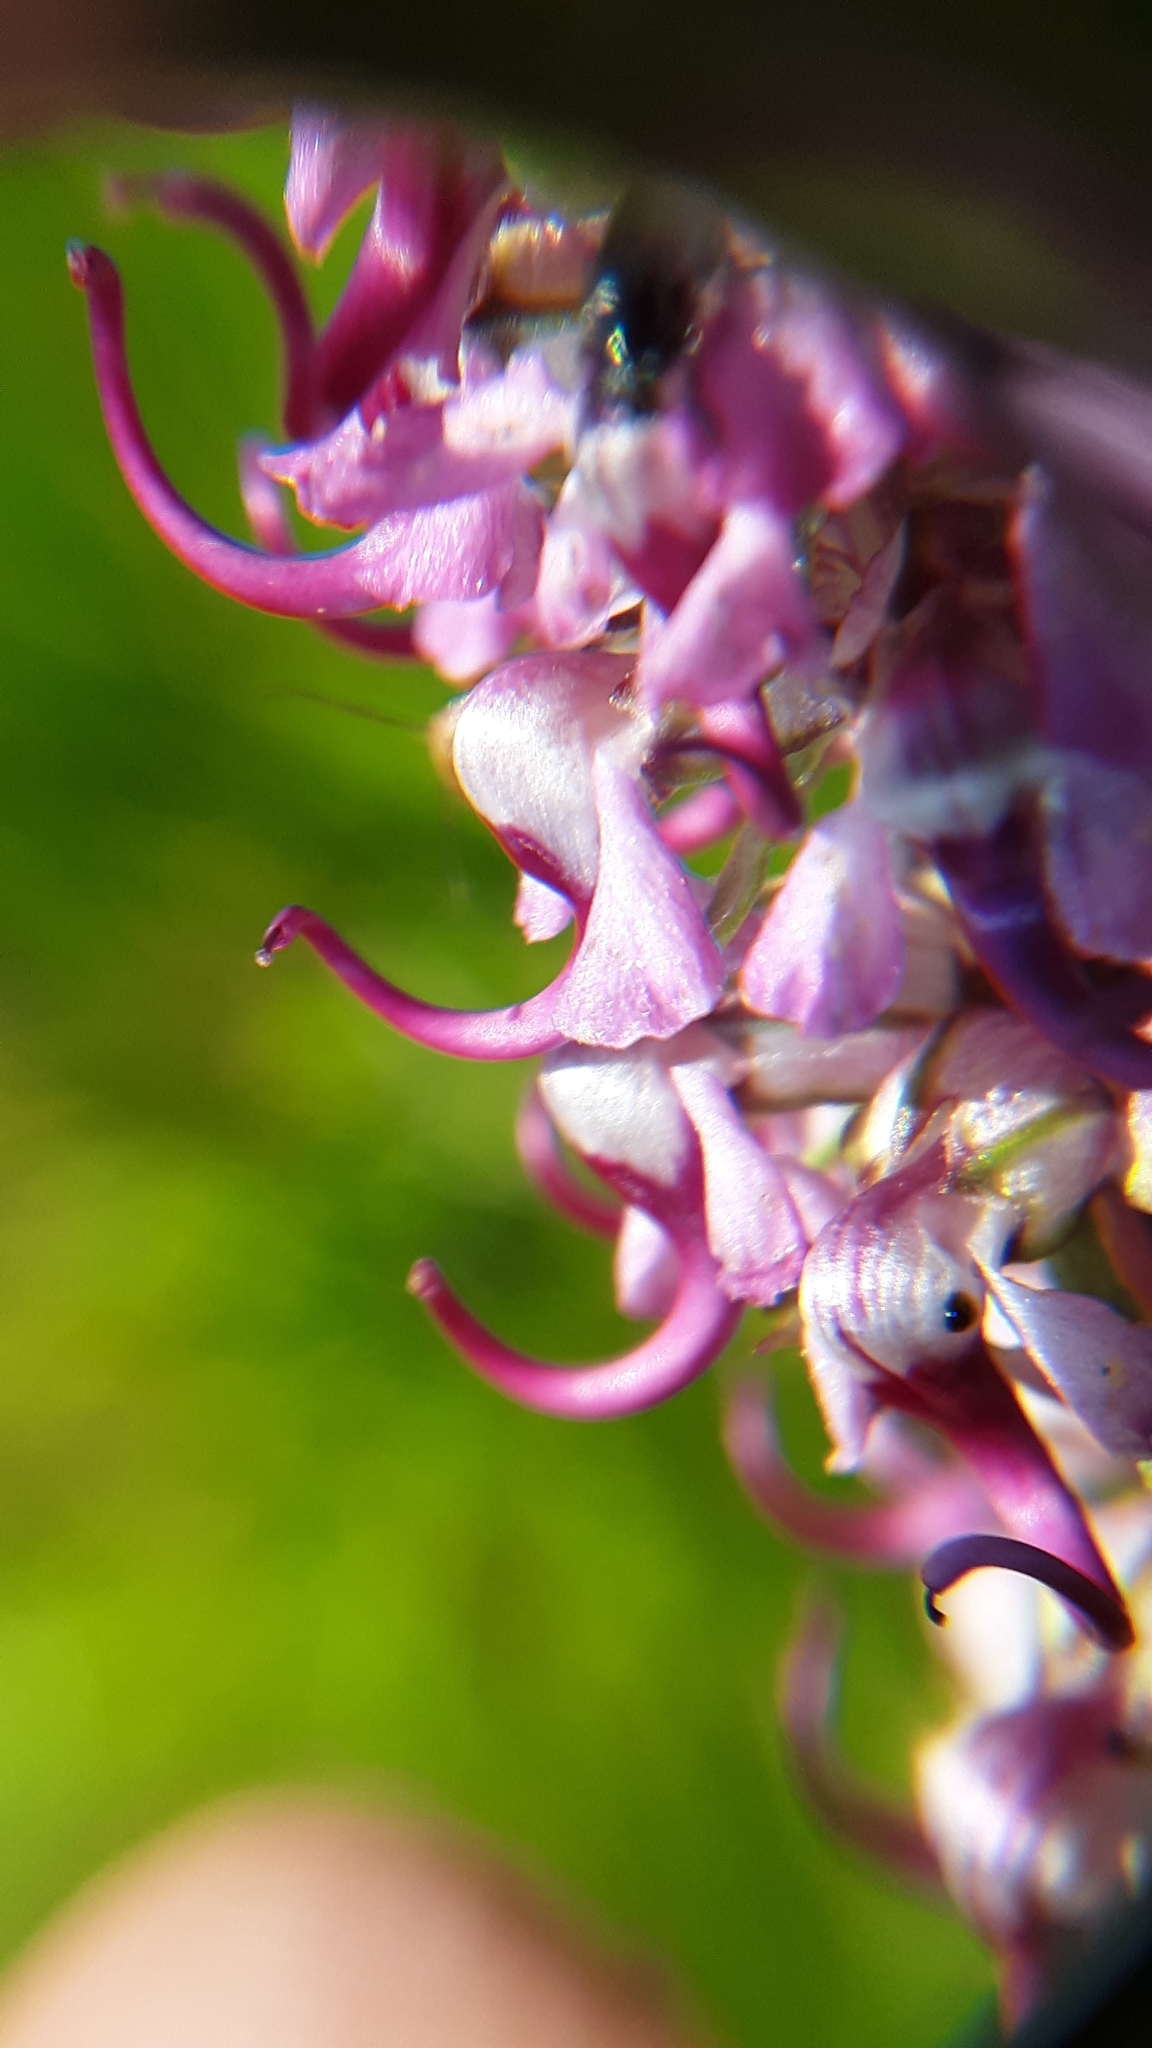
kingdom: Plantae
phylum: Tracheophyta
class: Magnoliopsida
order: Lamiales
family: Orobanchaceae
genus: Pedicularis
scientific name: Pedicularis groenlandica
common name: Elephant's-head
